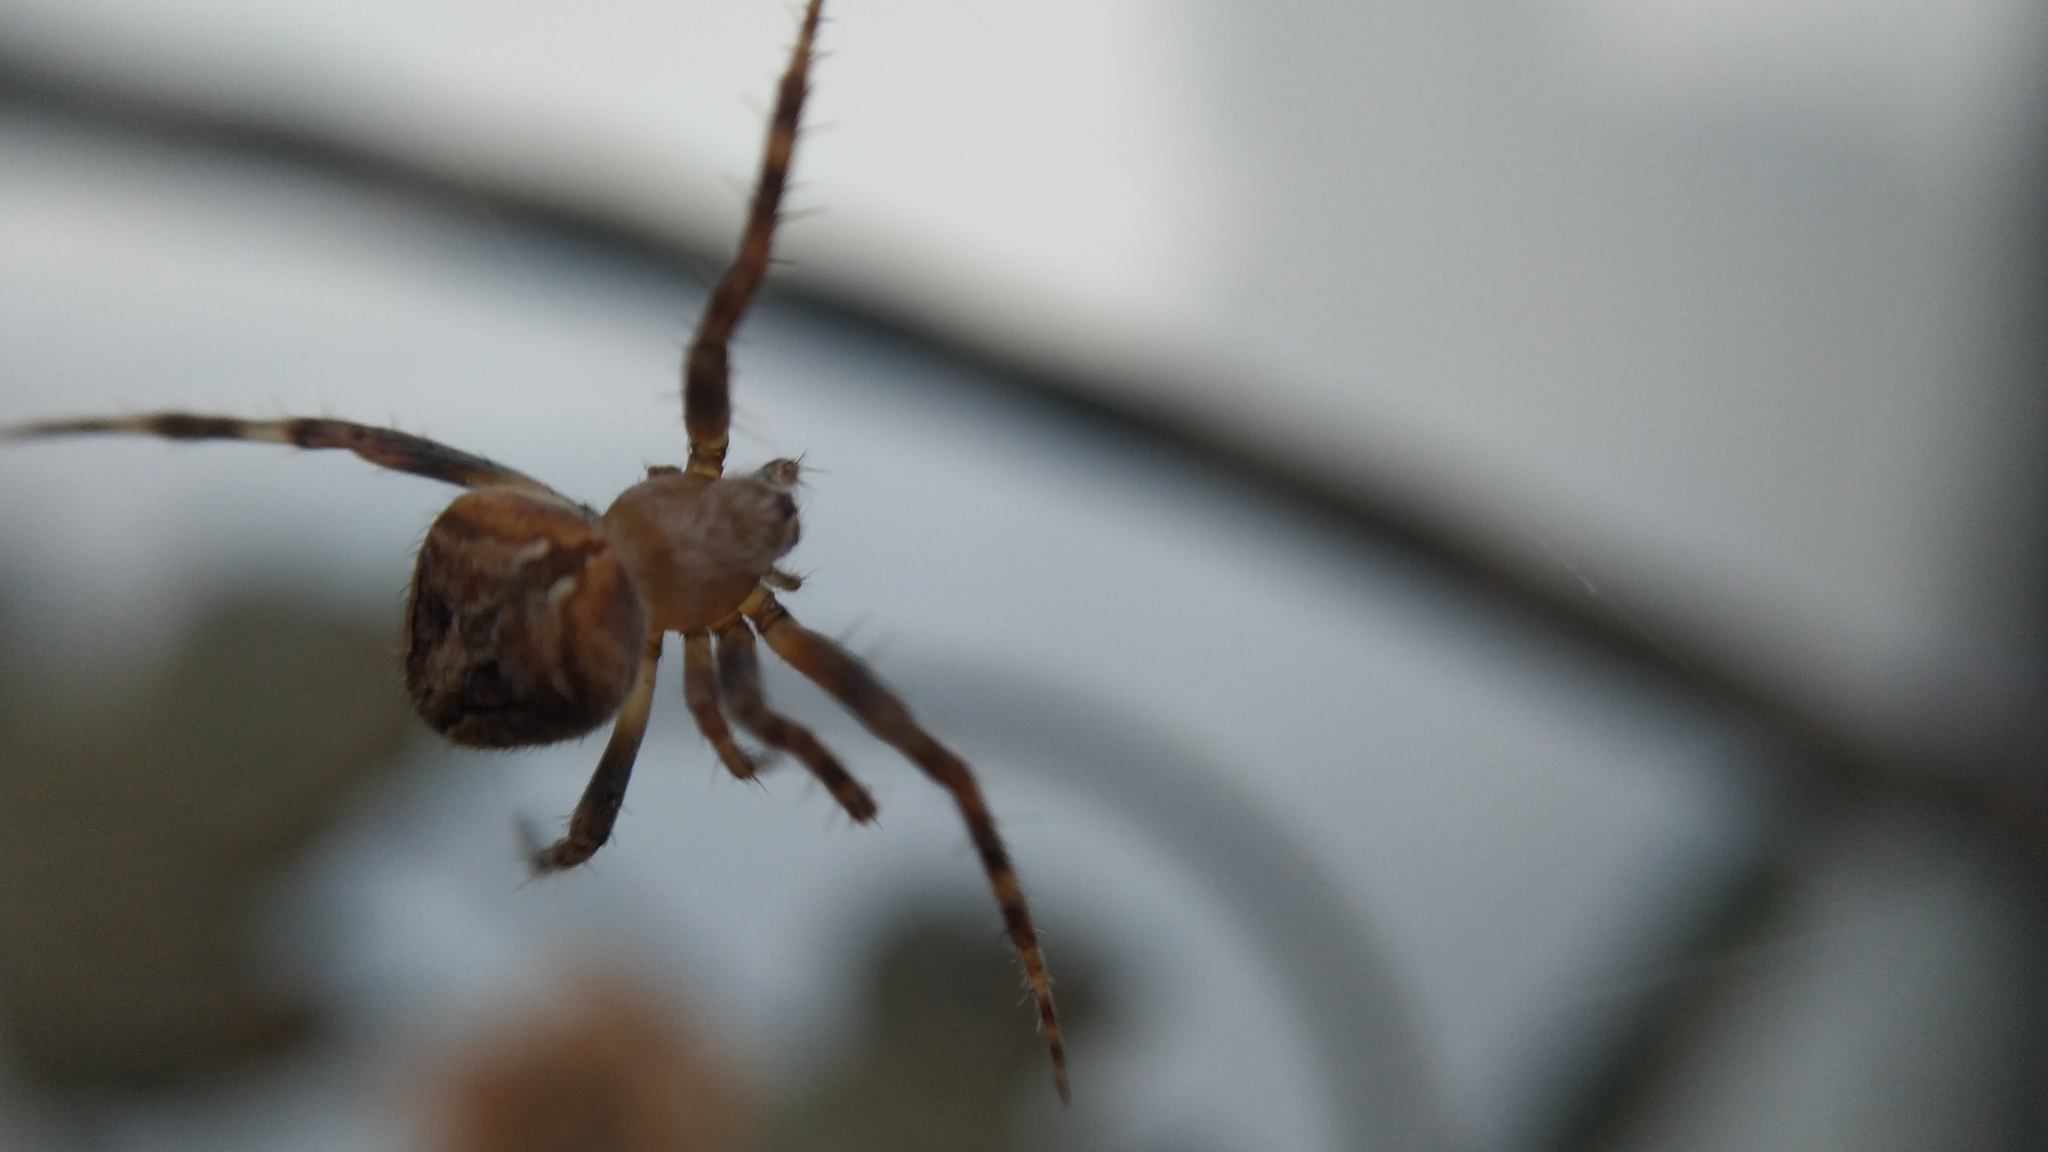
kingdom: Animalia
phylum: Arthropoda
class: Arachnida
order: Araneae
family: Araneidae
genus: Neoscona
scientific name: Neoscona subfusca
